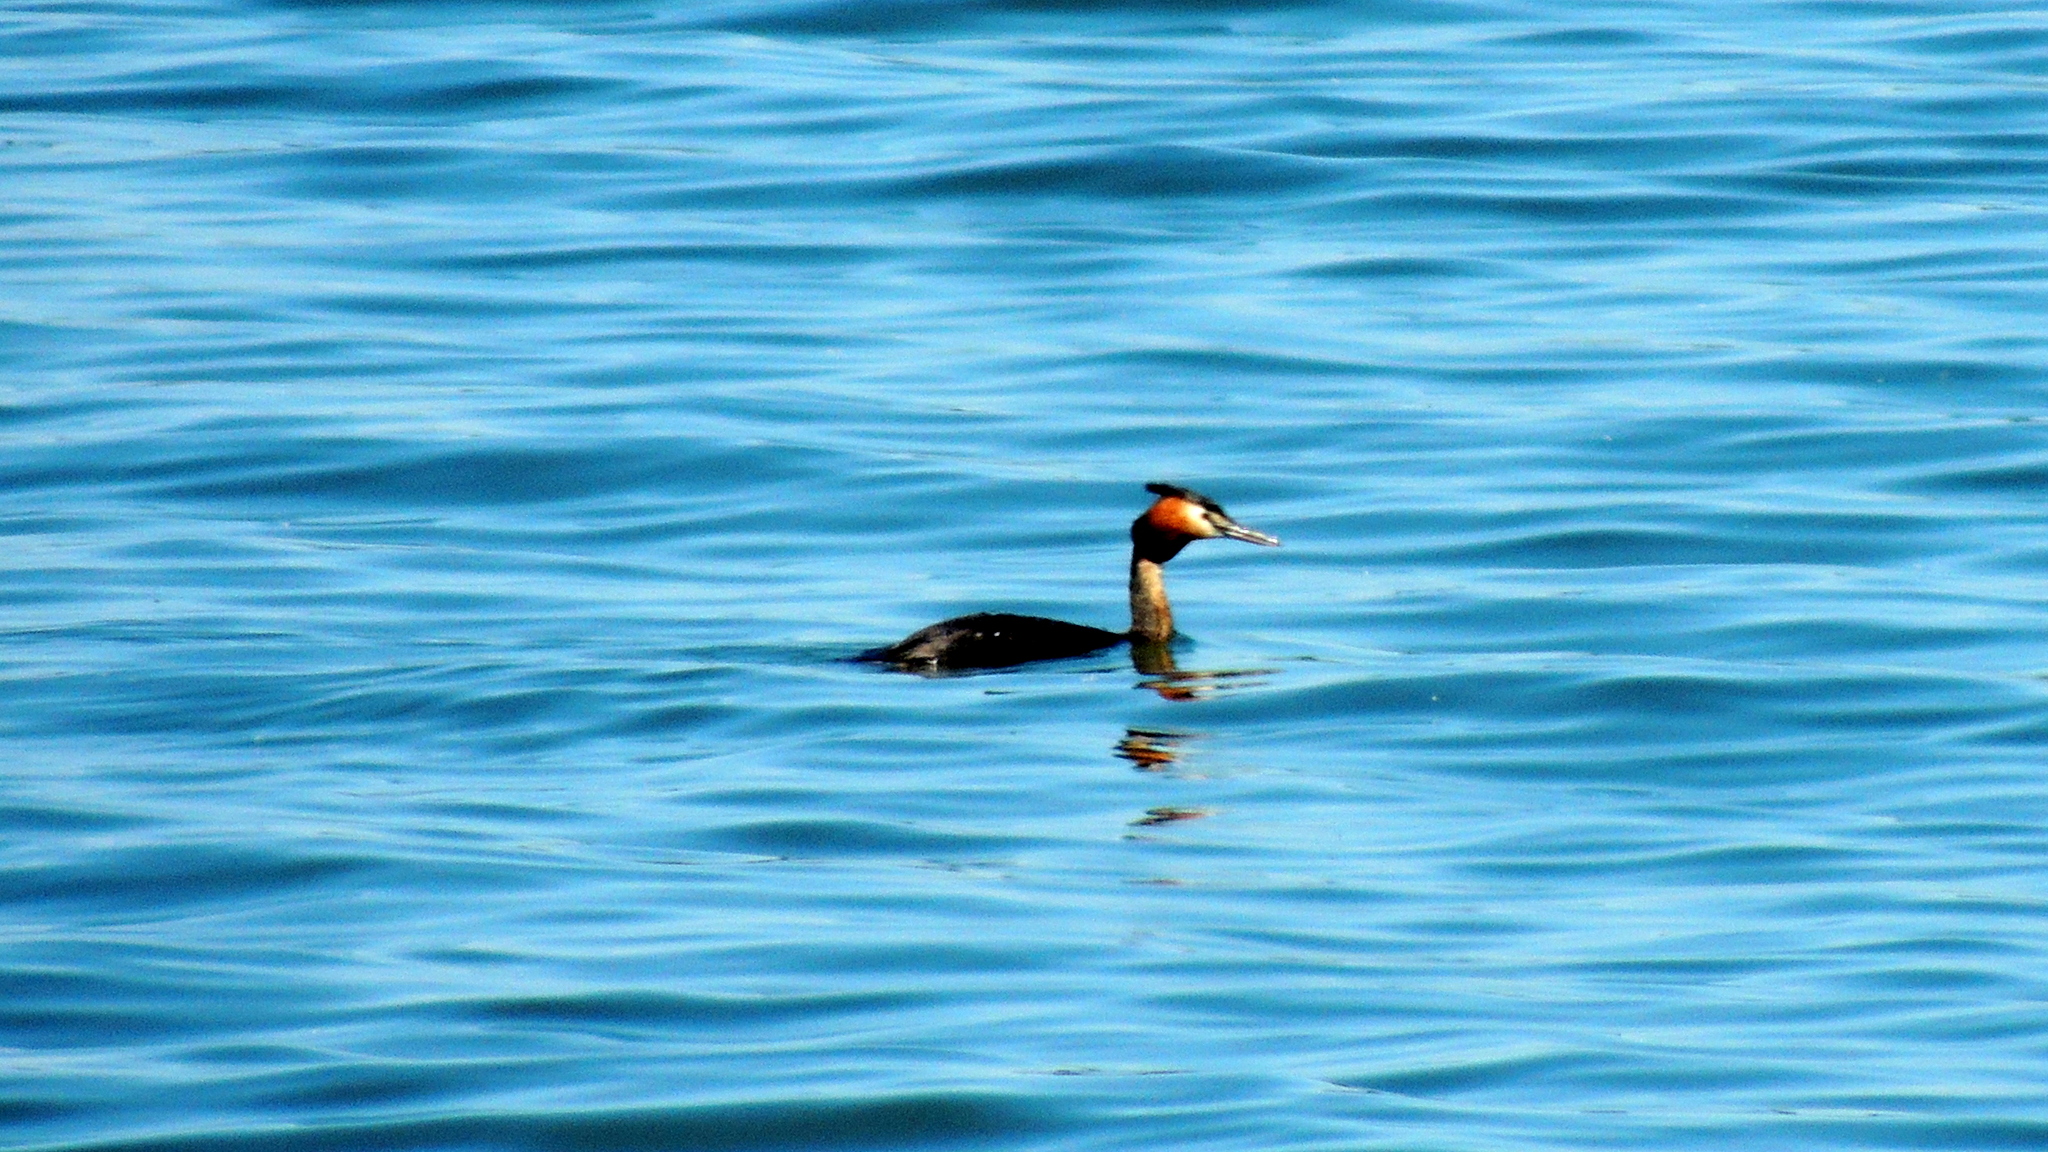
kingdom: Animalia
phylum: Chordata
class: Aves
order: Podicipediformes
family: Podicipedidae
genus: Podiceps
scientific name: Podiceps cristatus
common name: Great crested grebe
